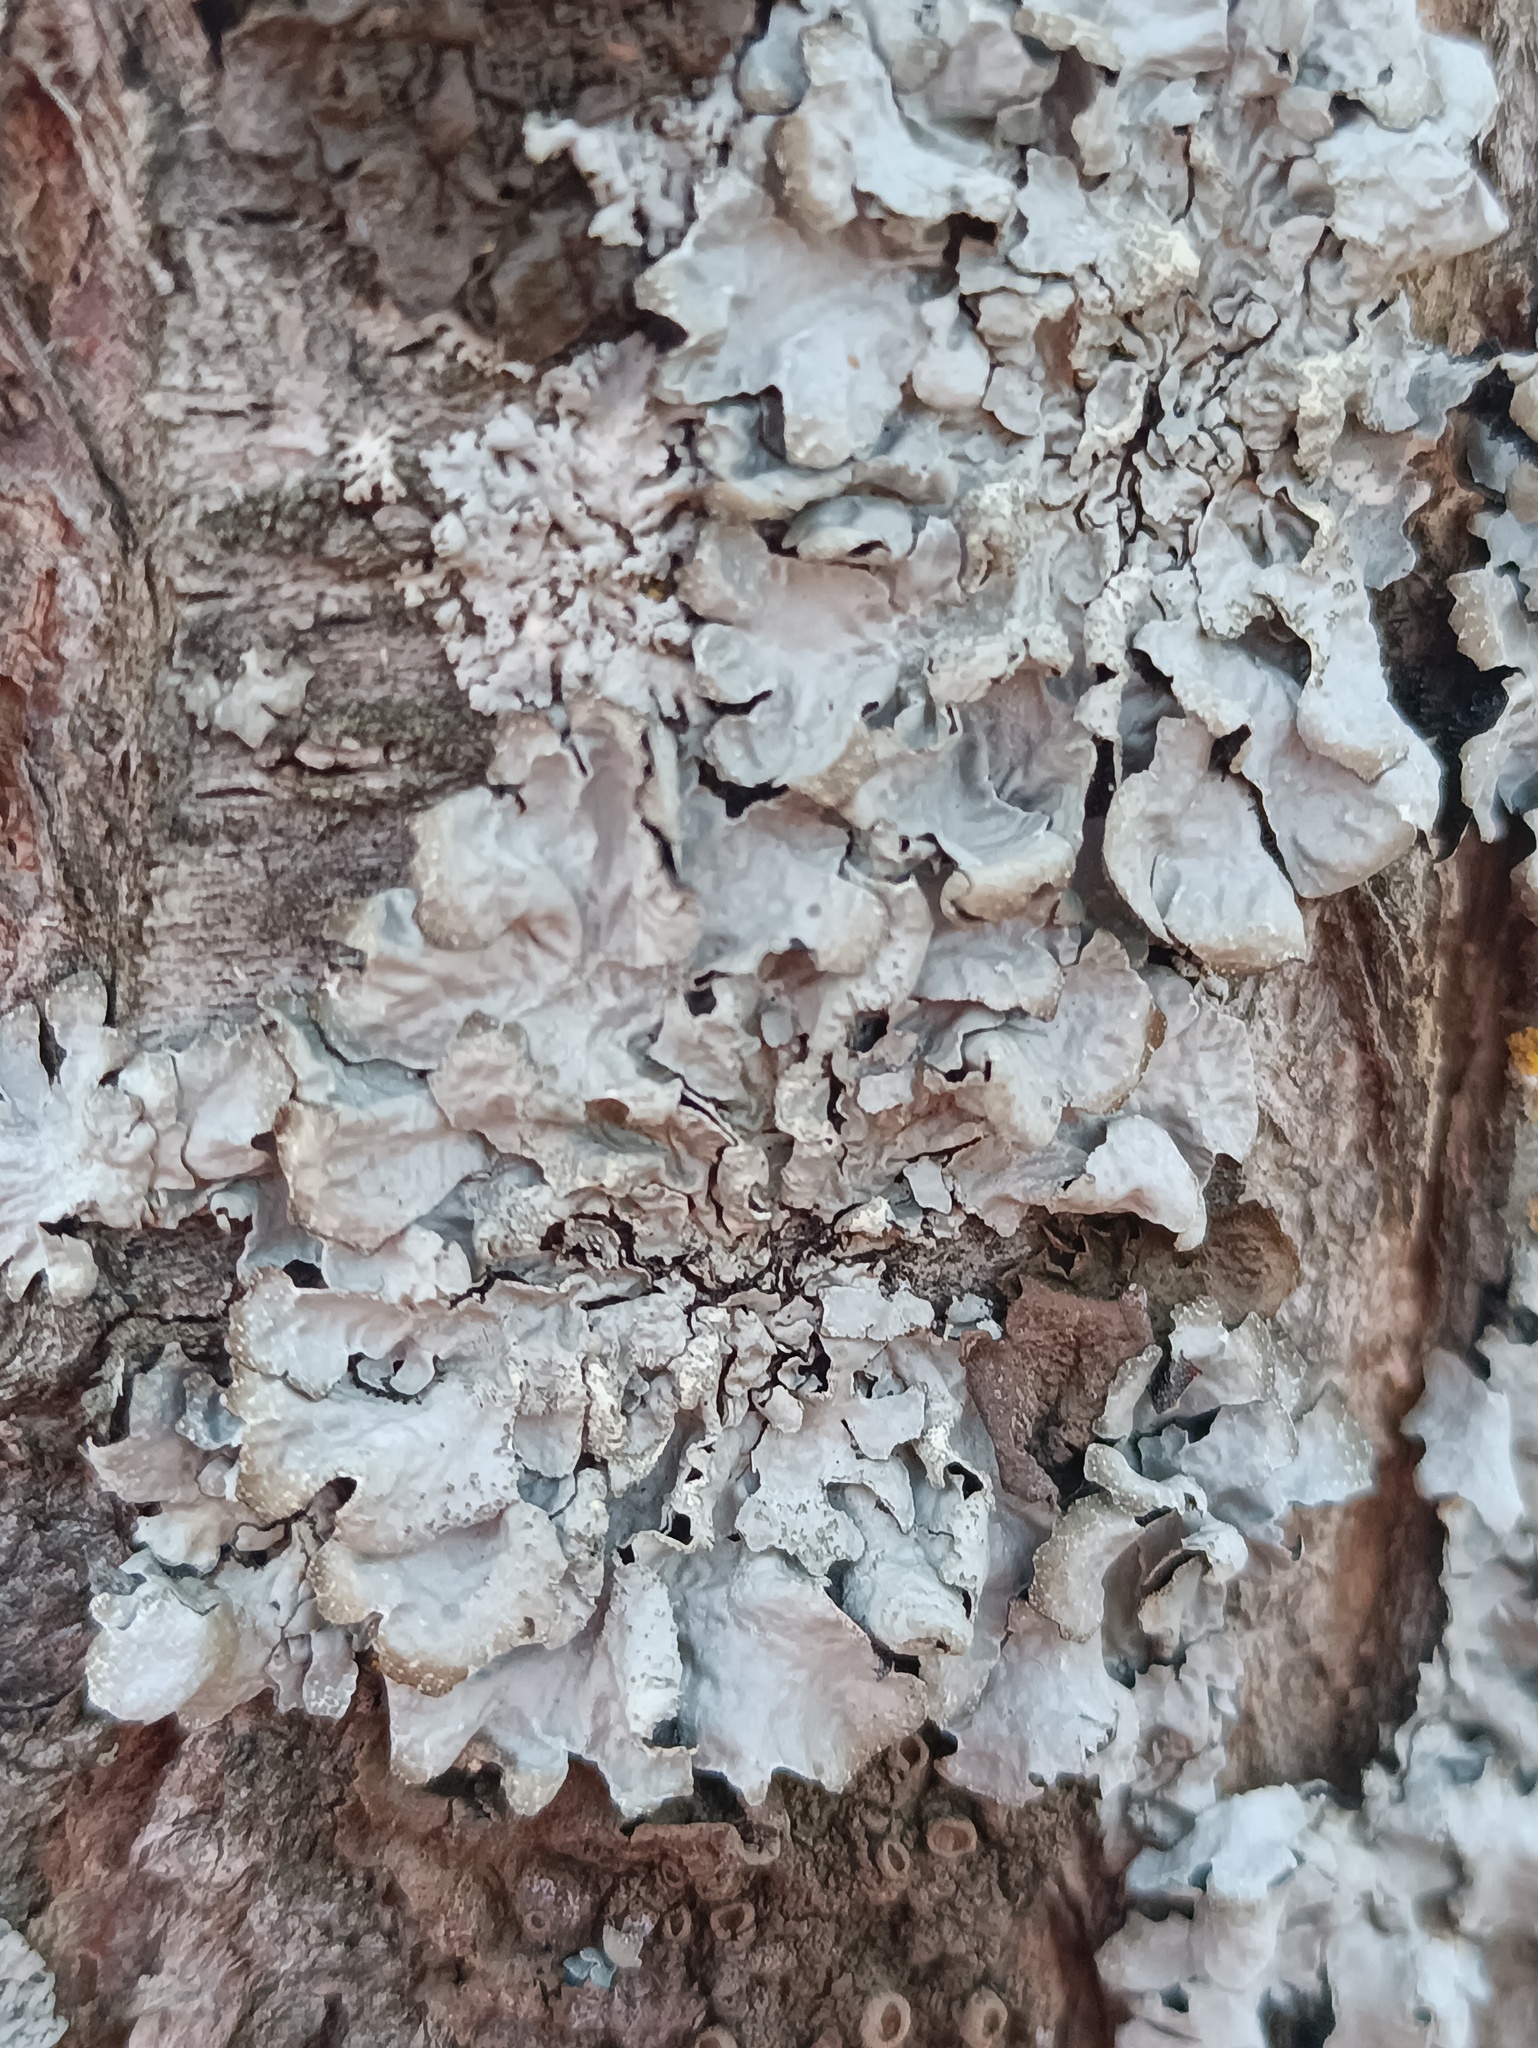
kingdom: Fungi
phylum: Ascomycota
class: Lecanoromycetes
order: Lecanorales
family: Parmeliaceae
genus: Parmelia
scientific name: Parmelia sulcata
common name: Netted shield lichen
